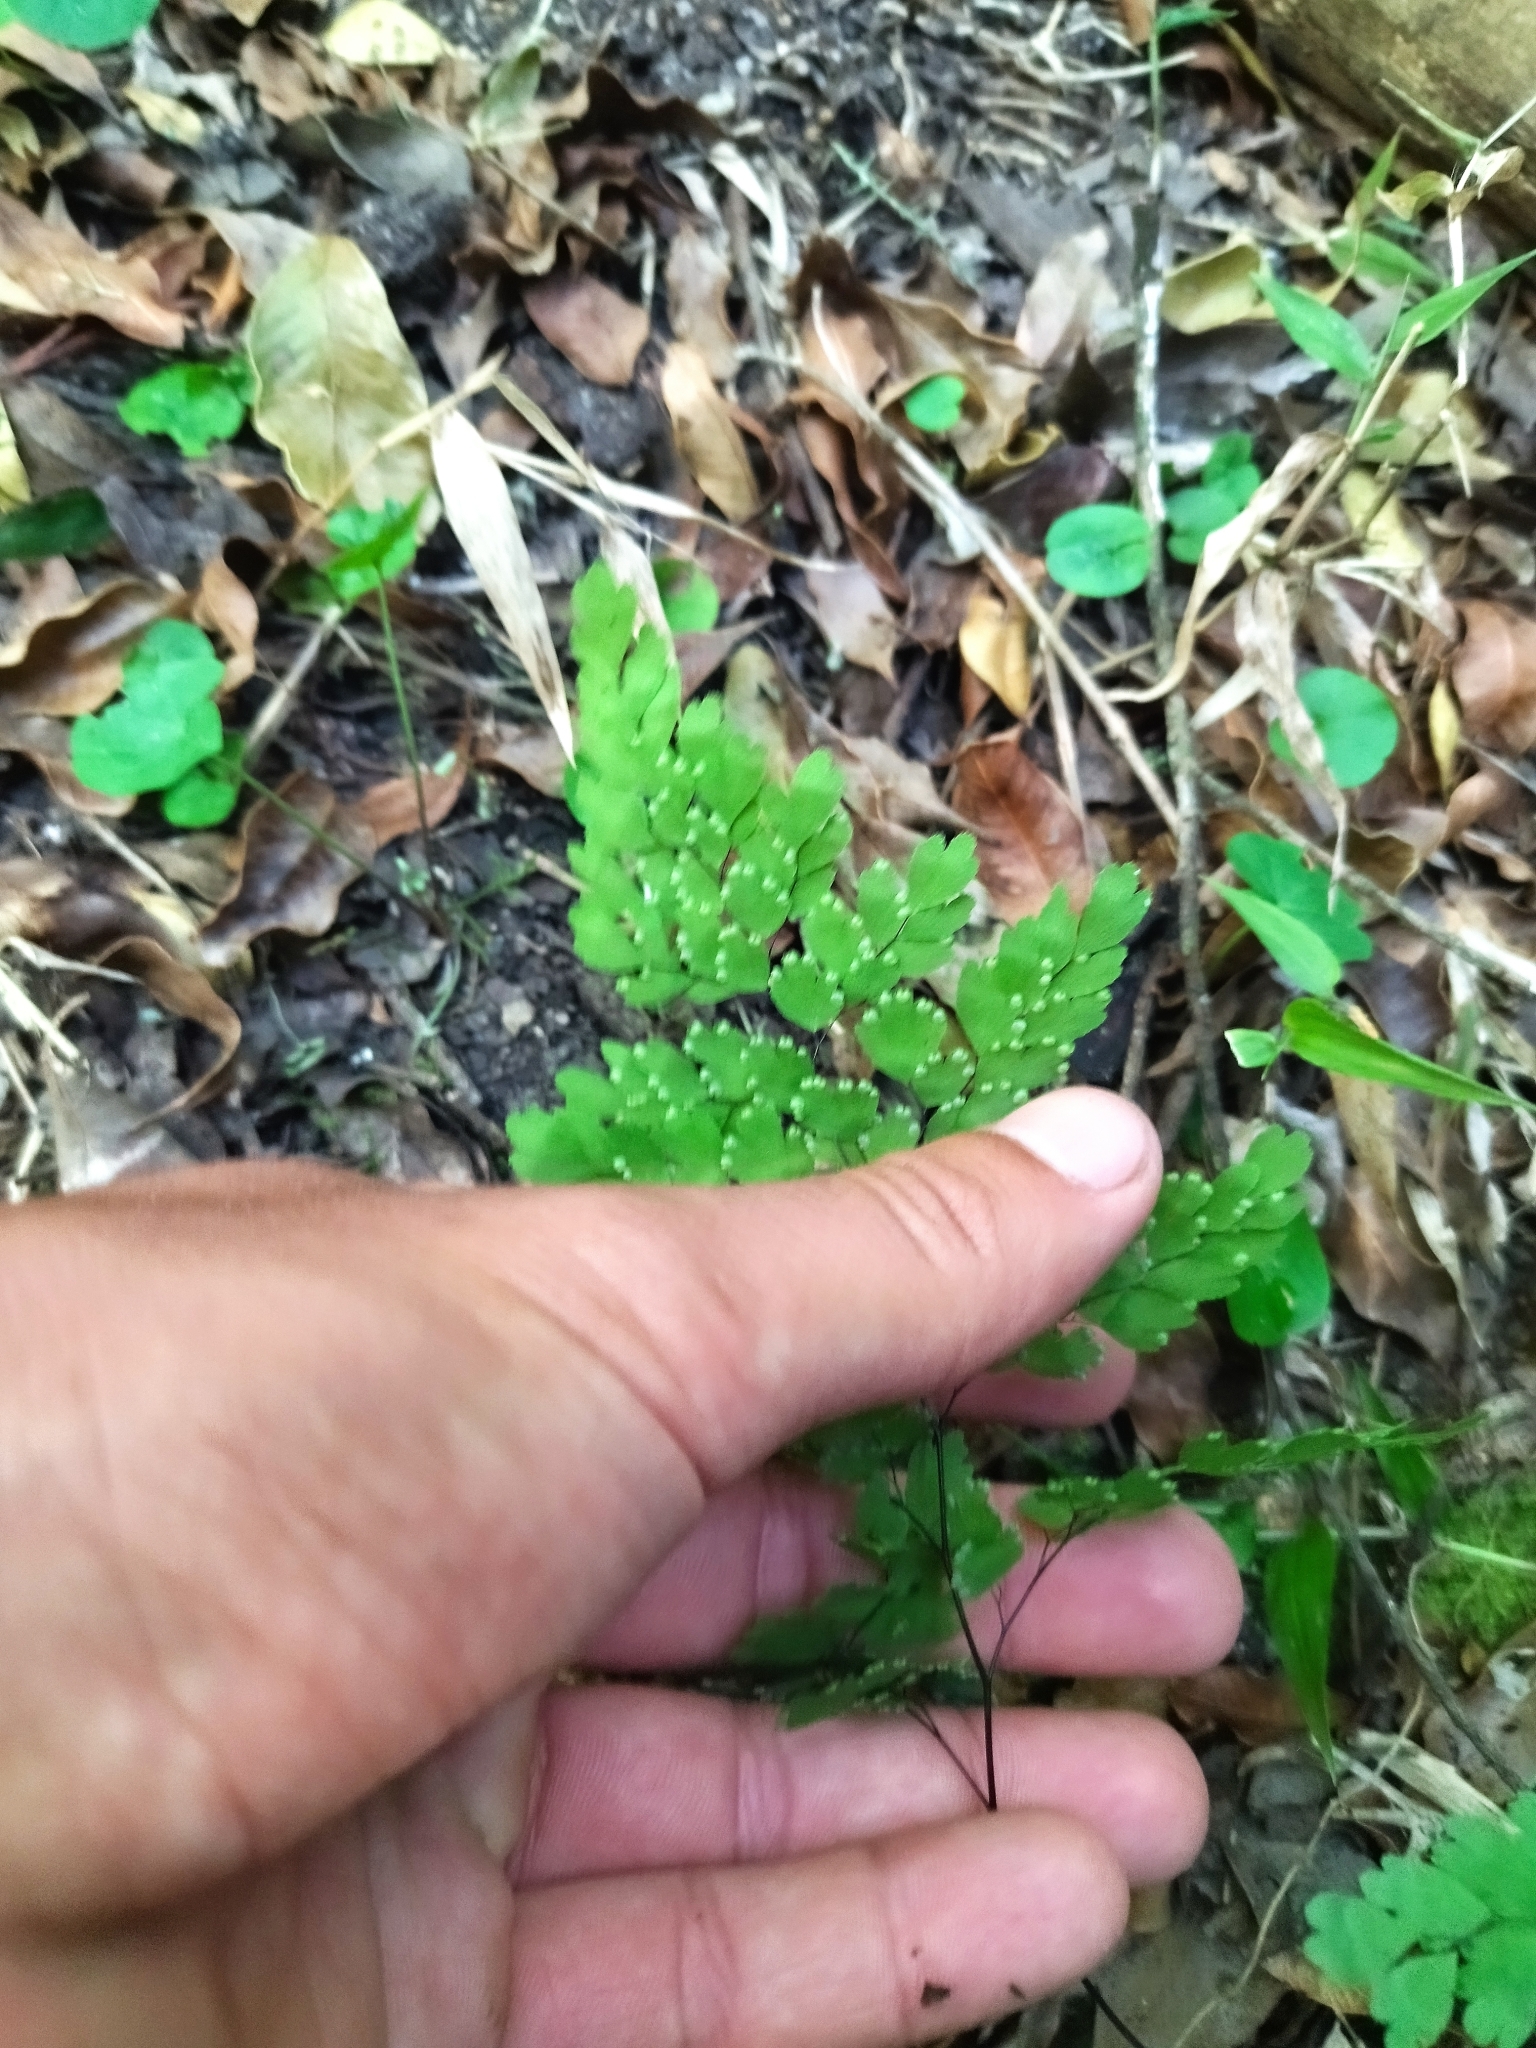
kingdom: Plantae
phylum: Tracheophyta
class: Polypodiopsida
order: Polypodiales
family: Pteridaceae
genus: Adiantum
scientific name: Adiantum raddianum
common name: Delta maidenhair fern
